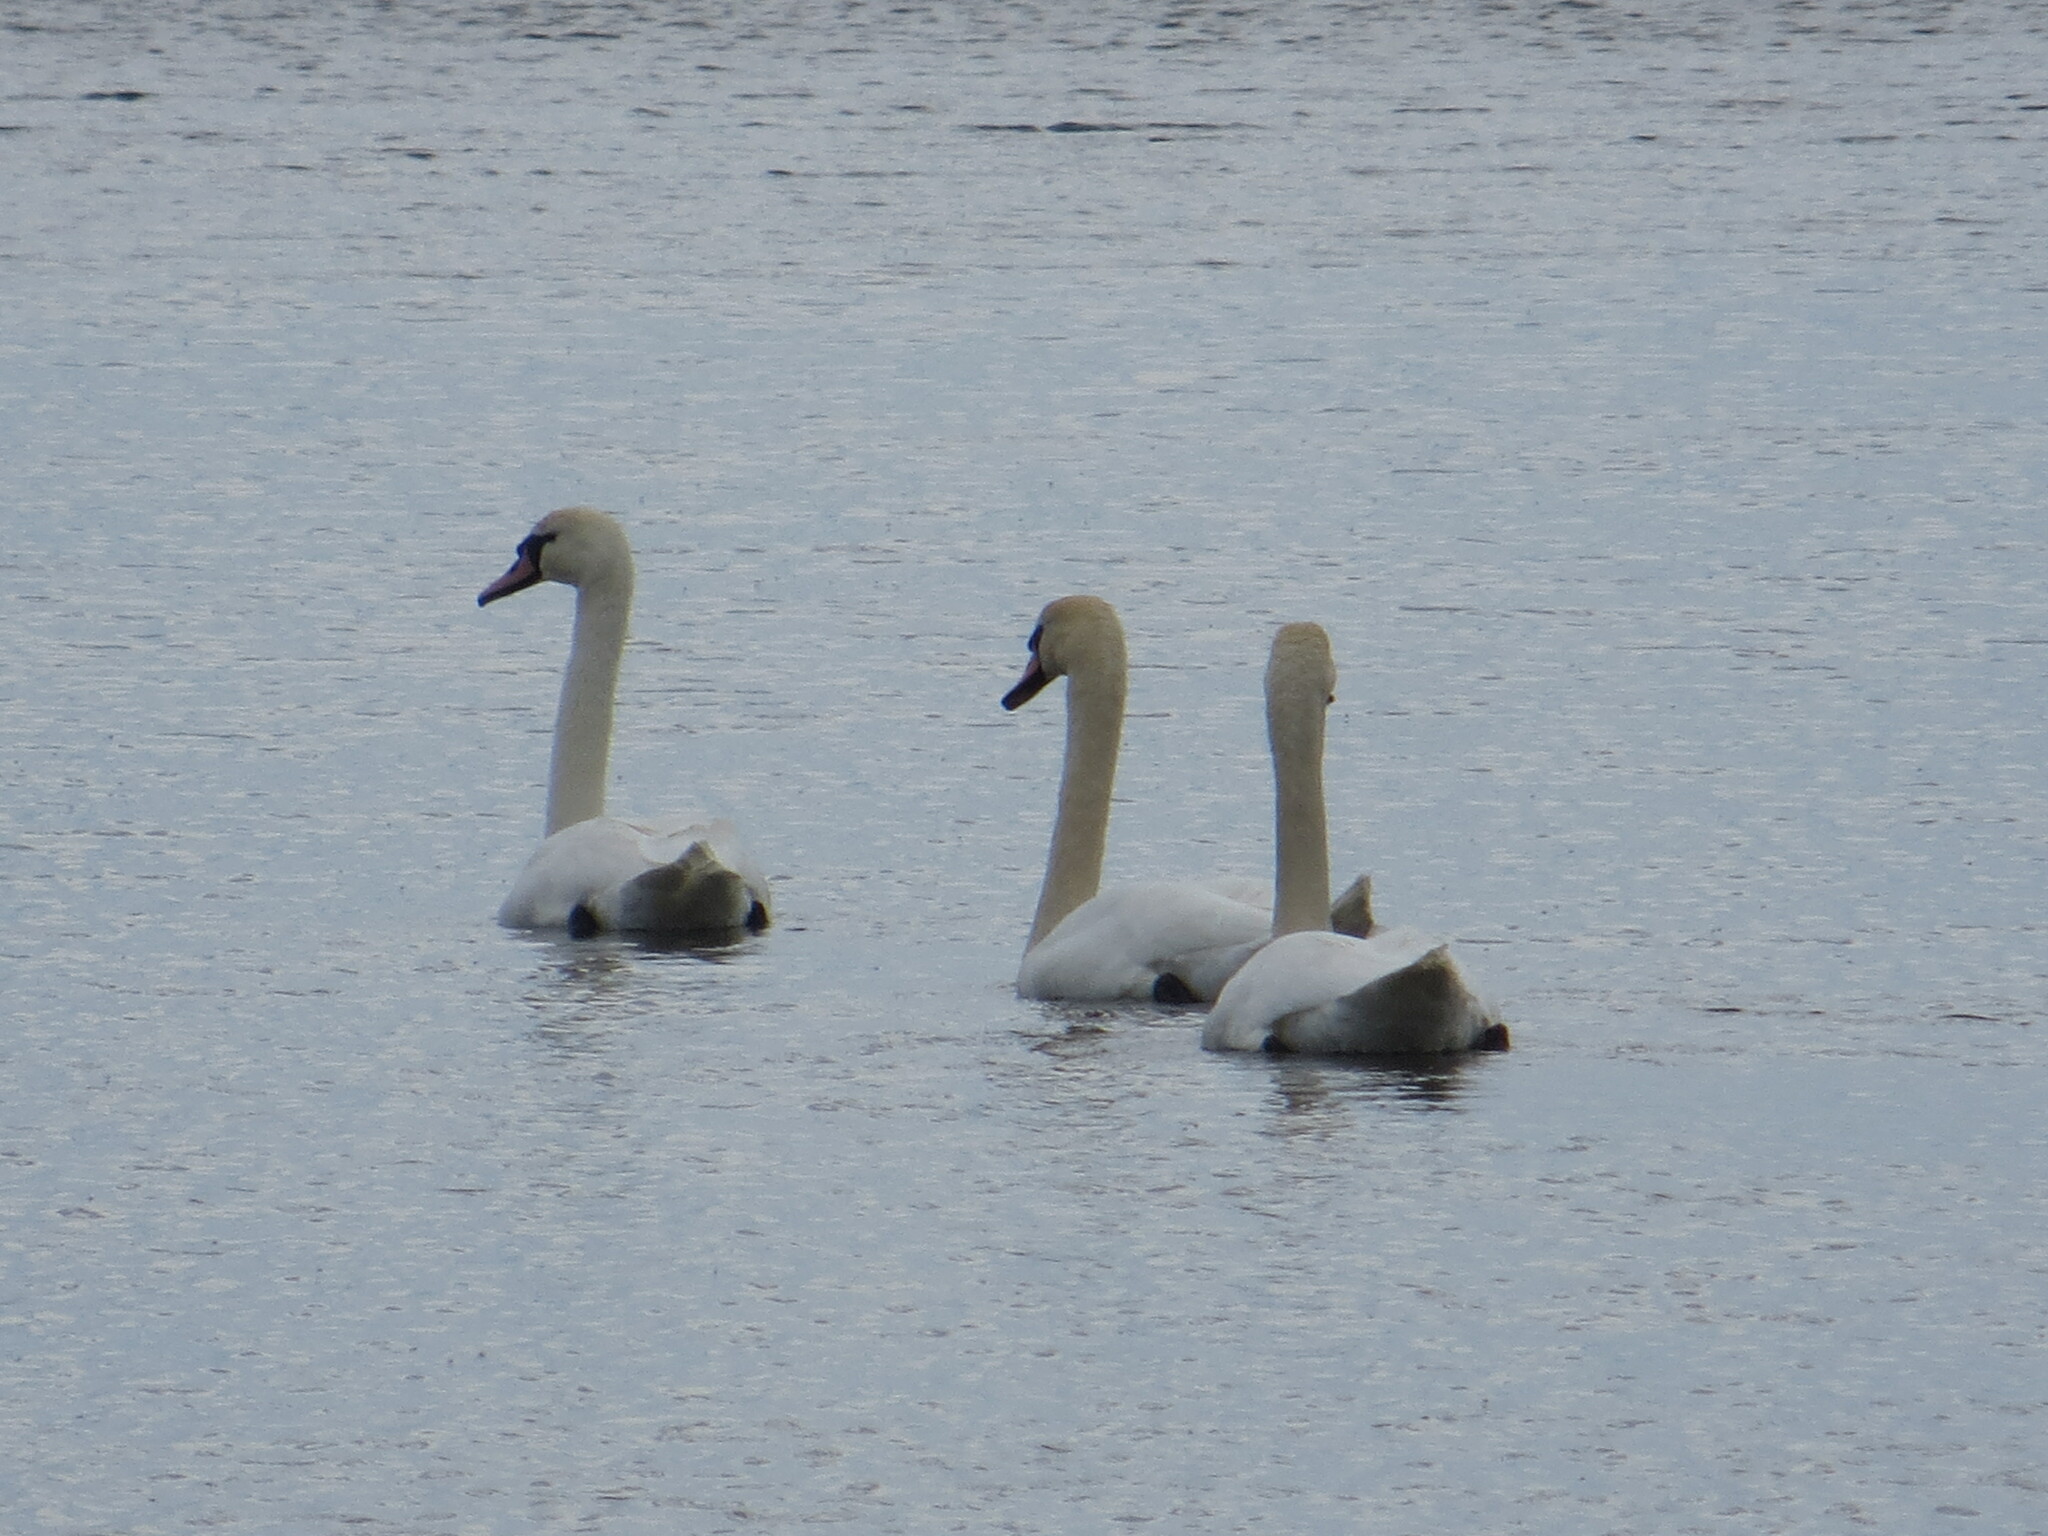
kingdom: Animalia
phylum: Chordata
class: Aves
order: Anseriformes
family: Anatidae
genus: Cygnus
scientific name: Cygnus olor
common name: Mute swan
